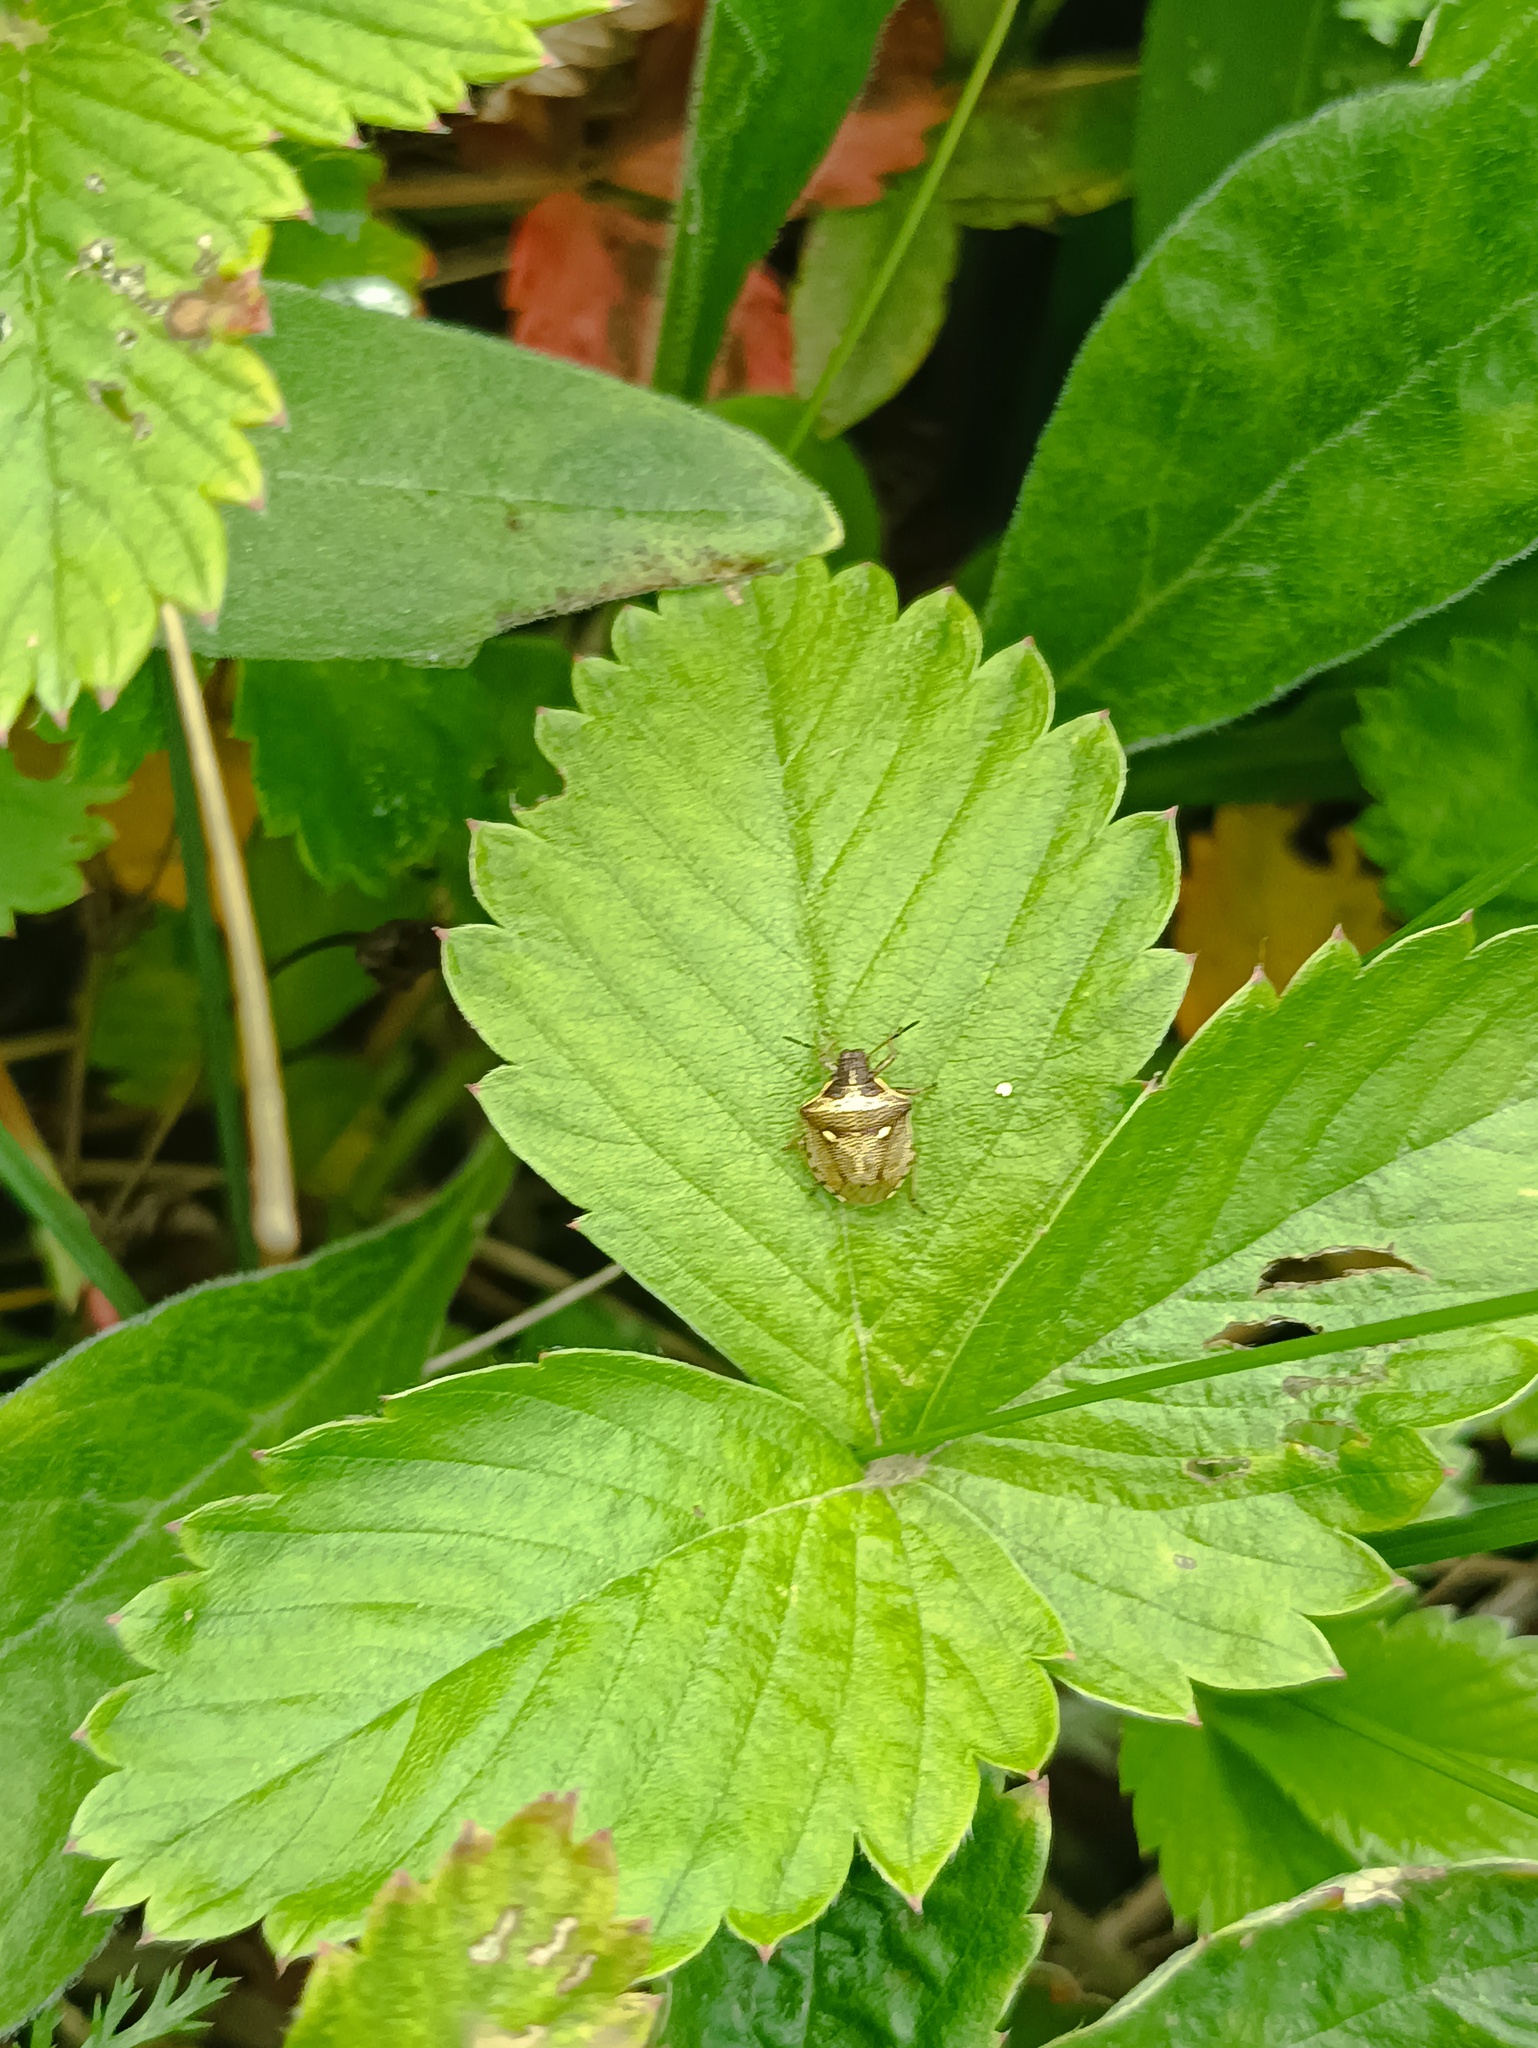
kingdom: Animalia
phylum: Arthropoda
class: Insecta
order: Hemiptera
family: Pentatomidae
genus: Eysarcoris
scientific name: Eysarcoris aeneus
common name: New forest shieldbug
